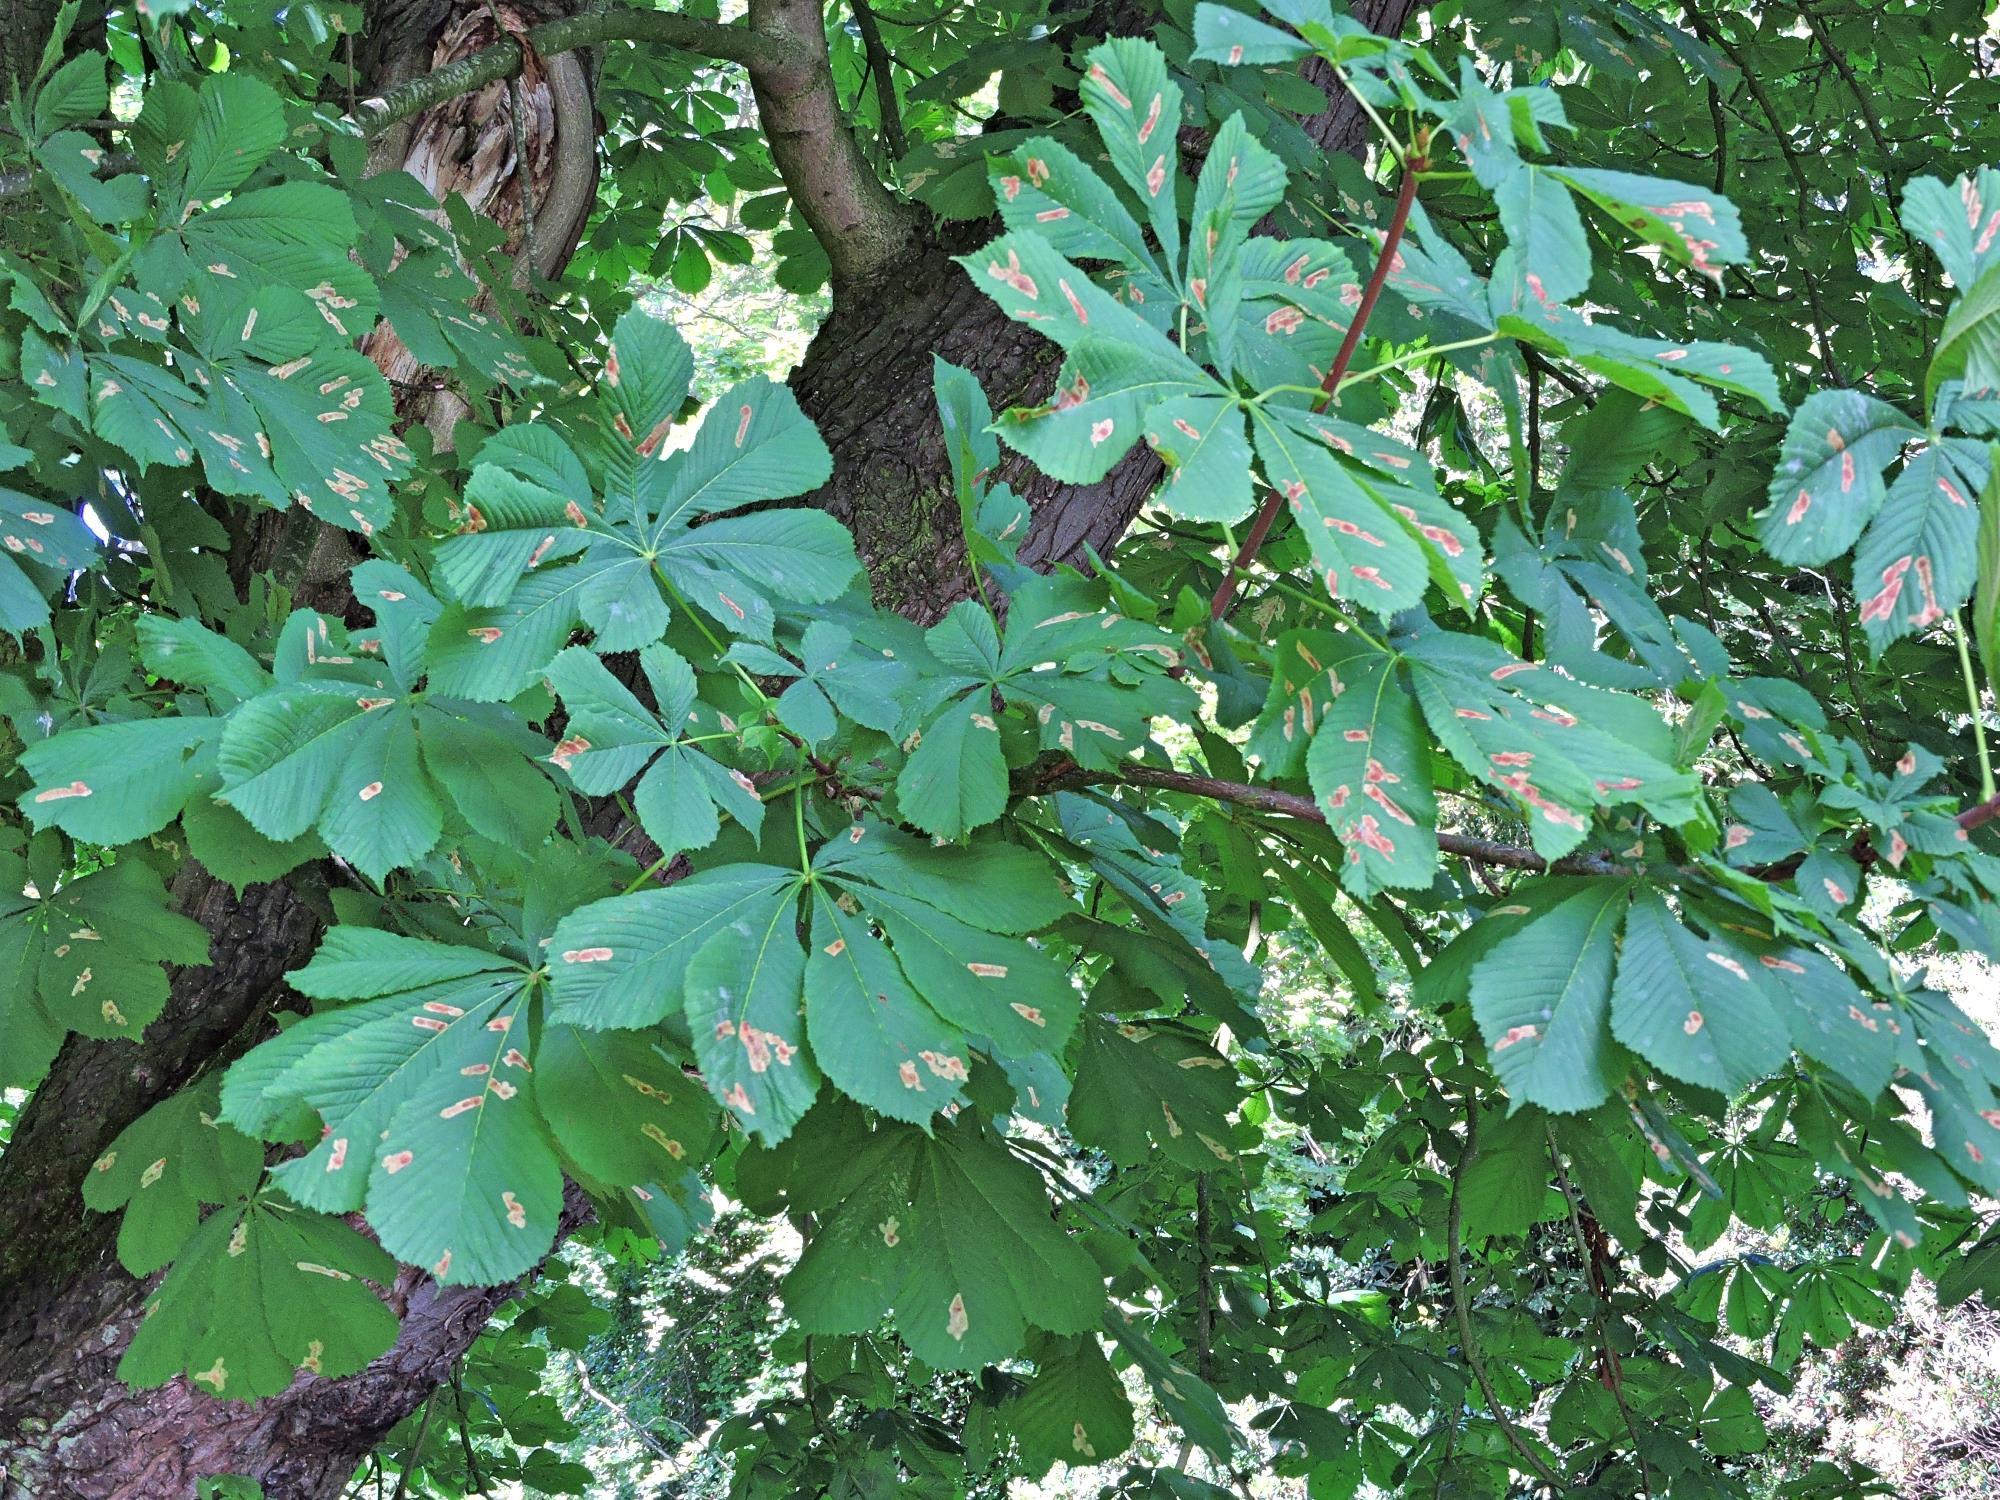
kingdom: Animalia
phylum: Arthropoda
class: Insecta
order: Lepidoptera
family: Gracillariidae
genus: Cameraria
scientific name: Cameraria ohridella
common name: Horse-chestnut leaf-miner
